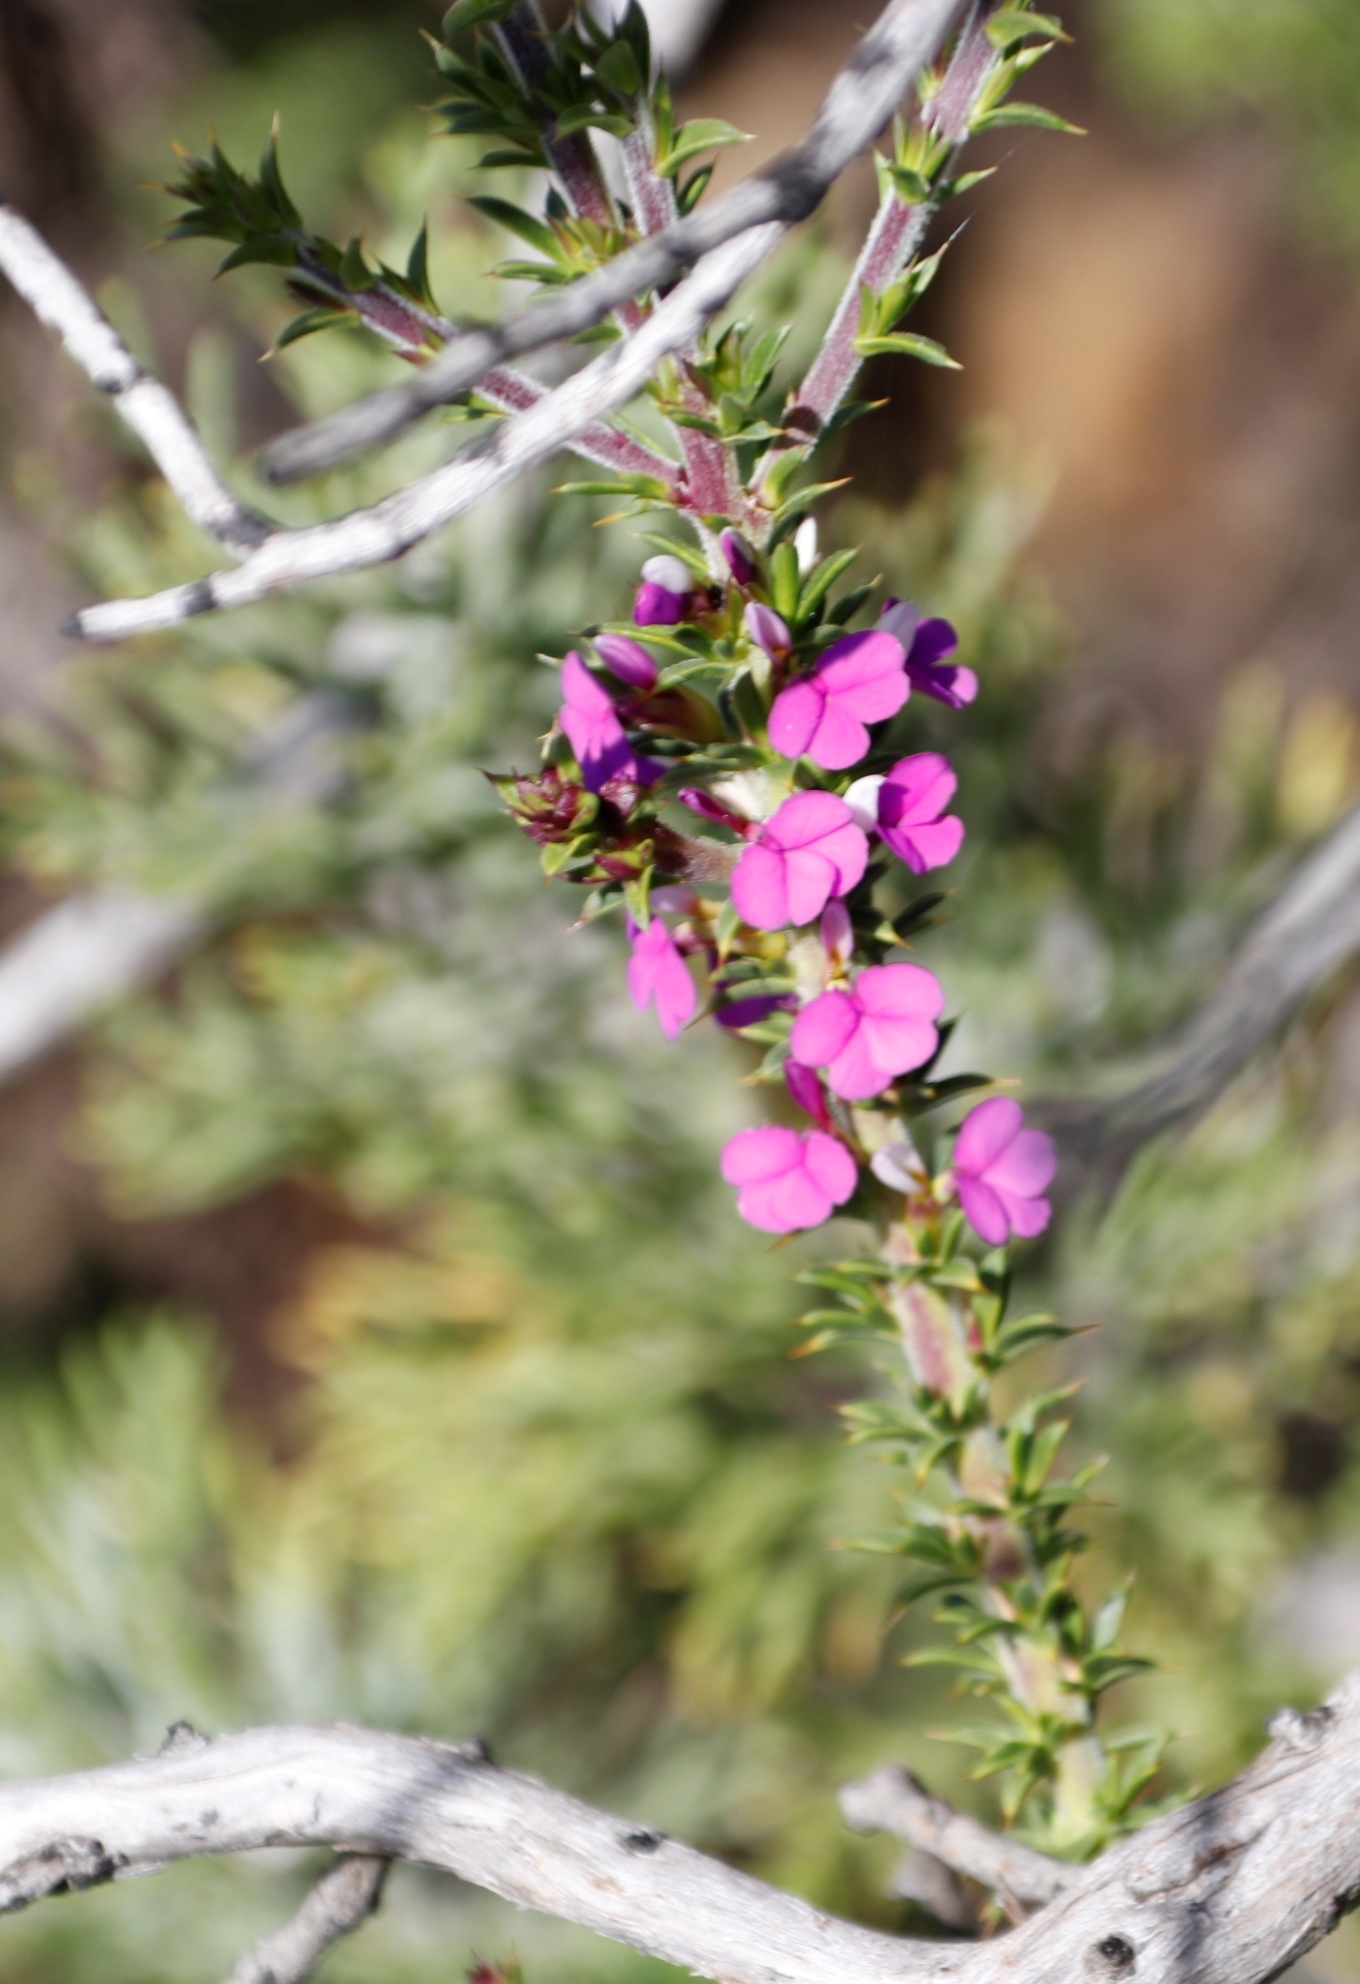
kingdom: Plantae
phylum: Tracheophyta
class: Magnoliopsida
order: Fabales
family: Polygalaceae
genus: Muraltia
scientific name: Muraltia heisteria
